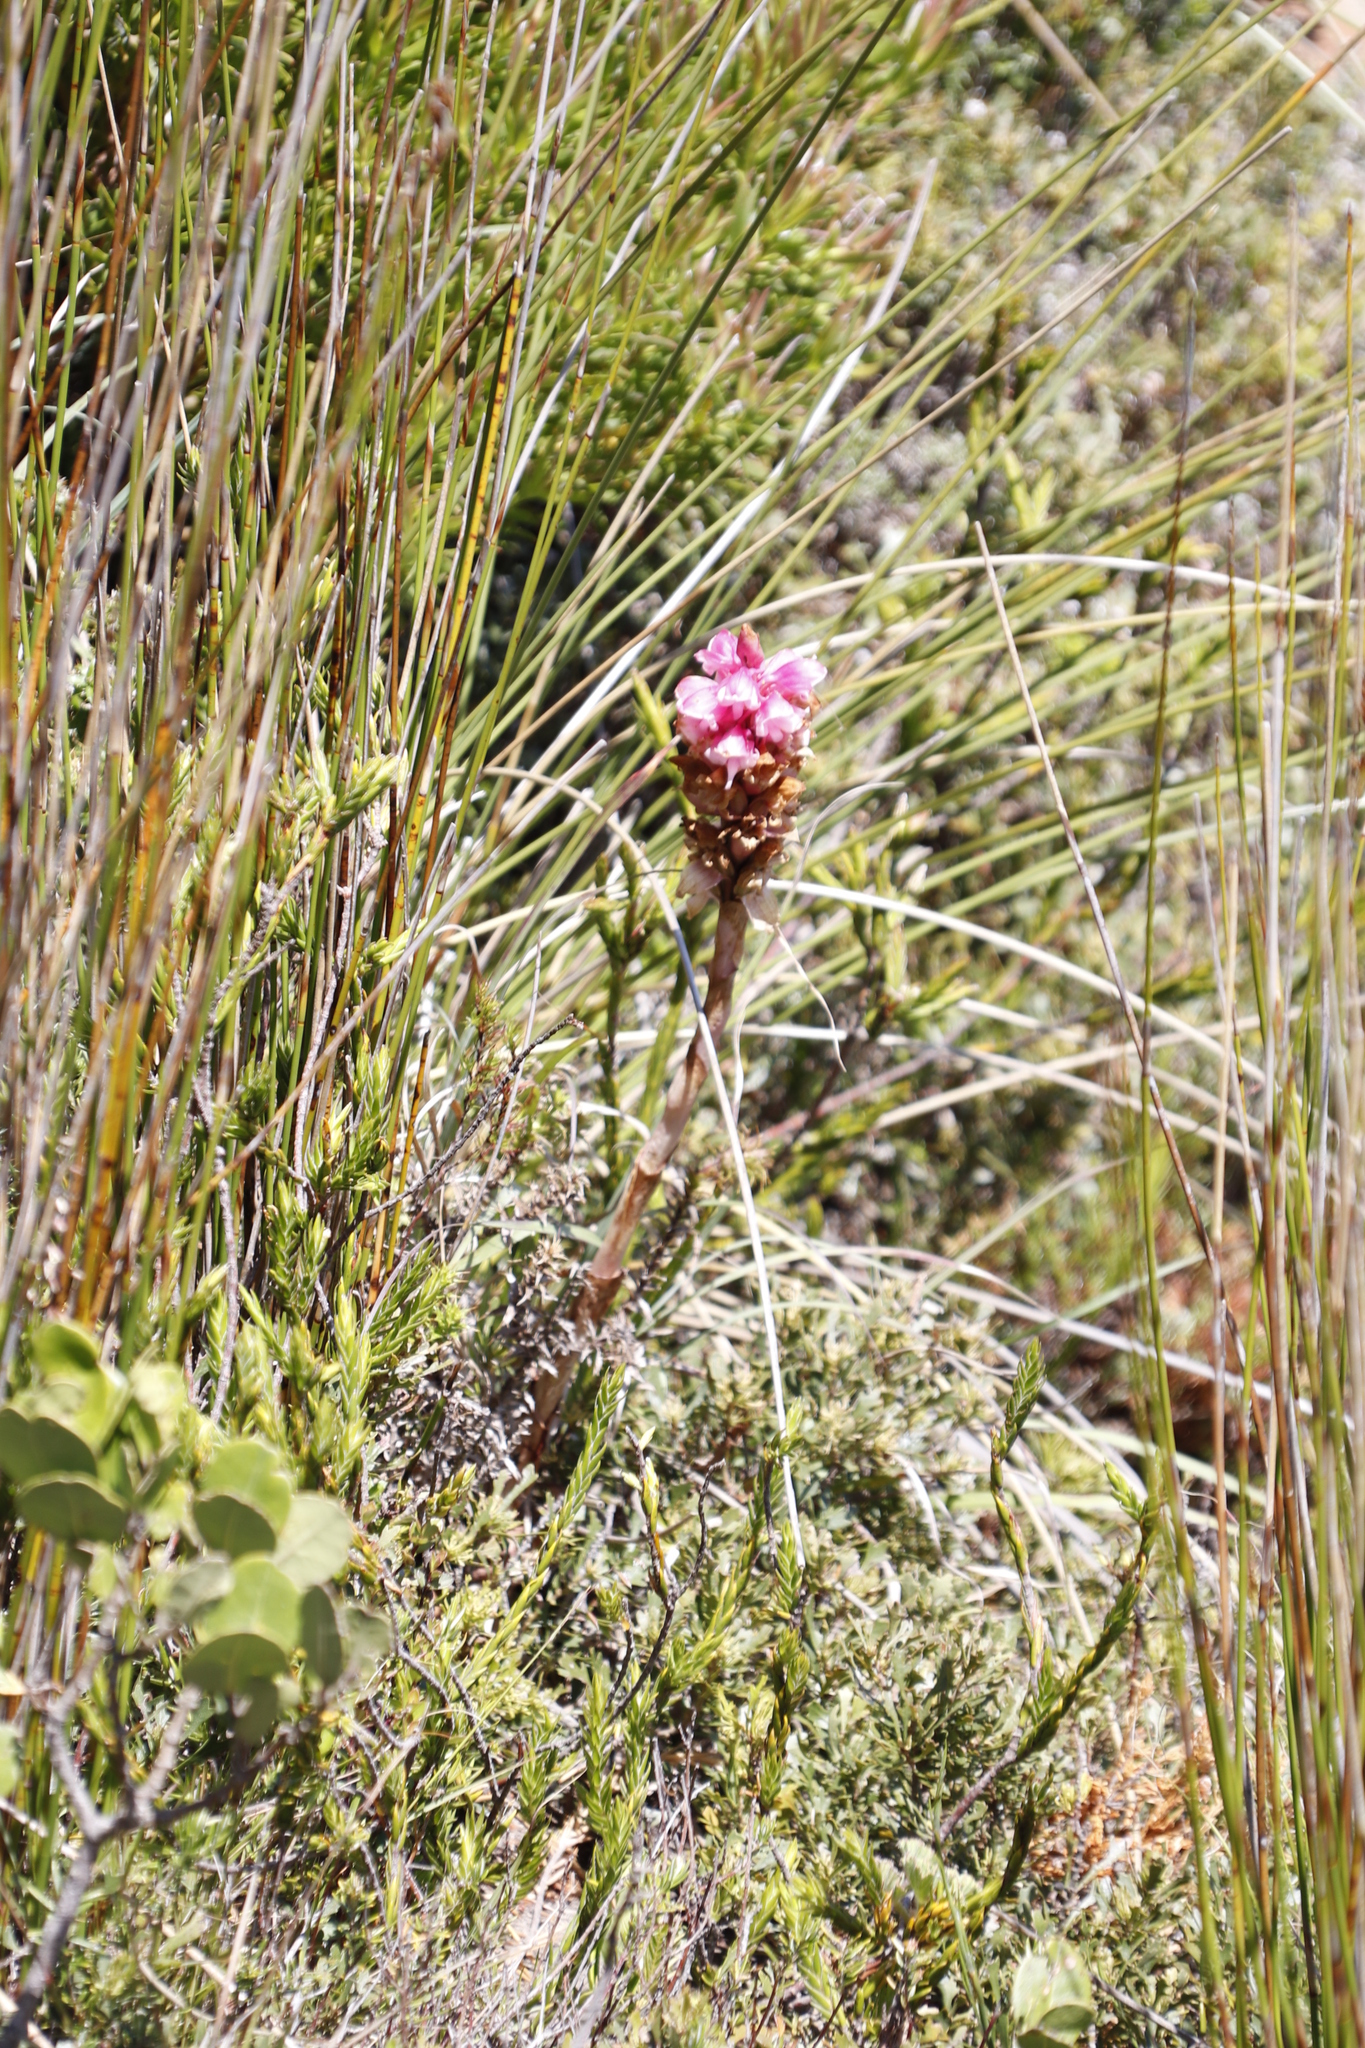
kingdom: Plantae
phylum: Tracheophyta
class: Liliopsida
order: Asparagales
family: Orchidaceae
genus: Satyrium
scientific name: Satyrium carneum
